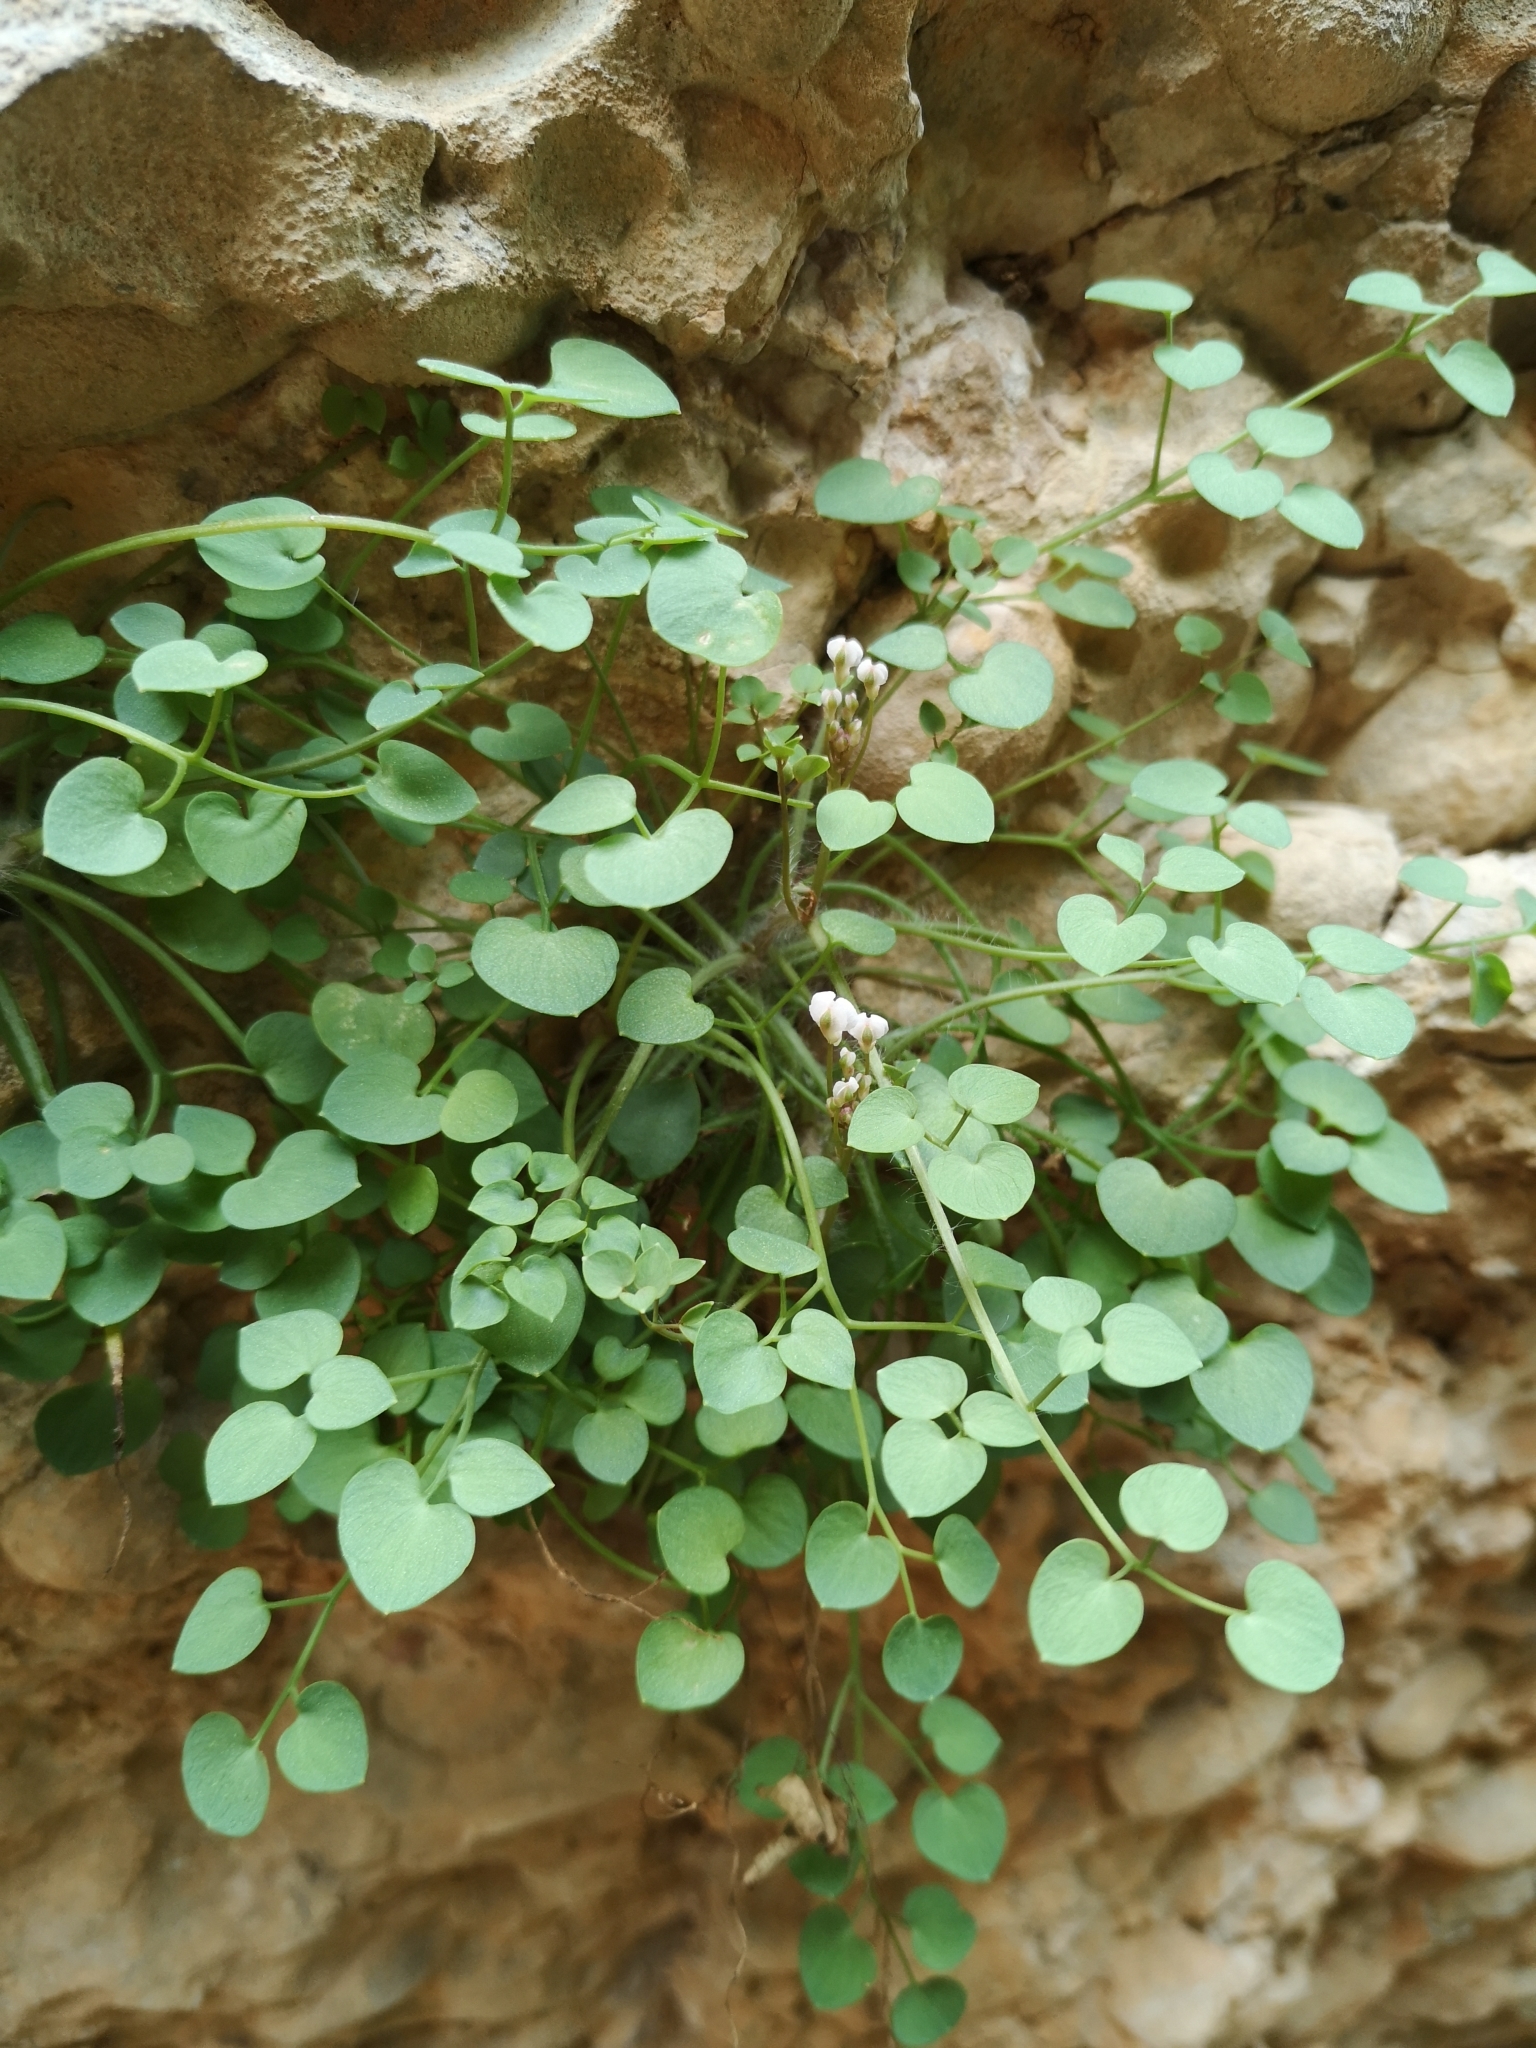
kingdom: Plantae
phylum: Tracheophyta
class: Magnoliopsida
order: Ranunculales
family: Papaveraceae
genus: Sarcocapnos
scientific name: Sarcocapnos enneaphylla
